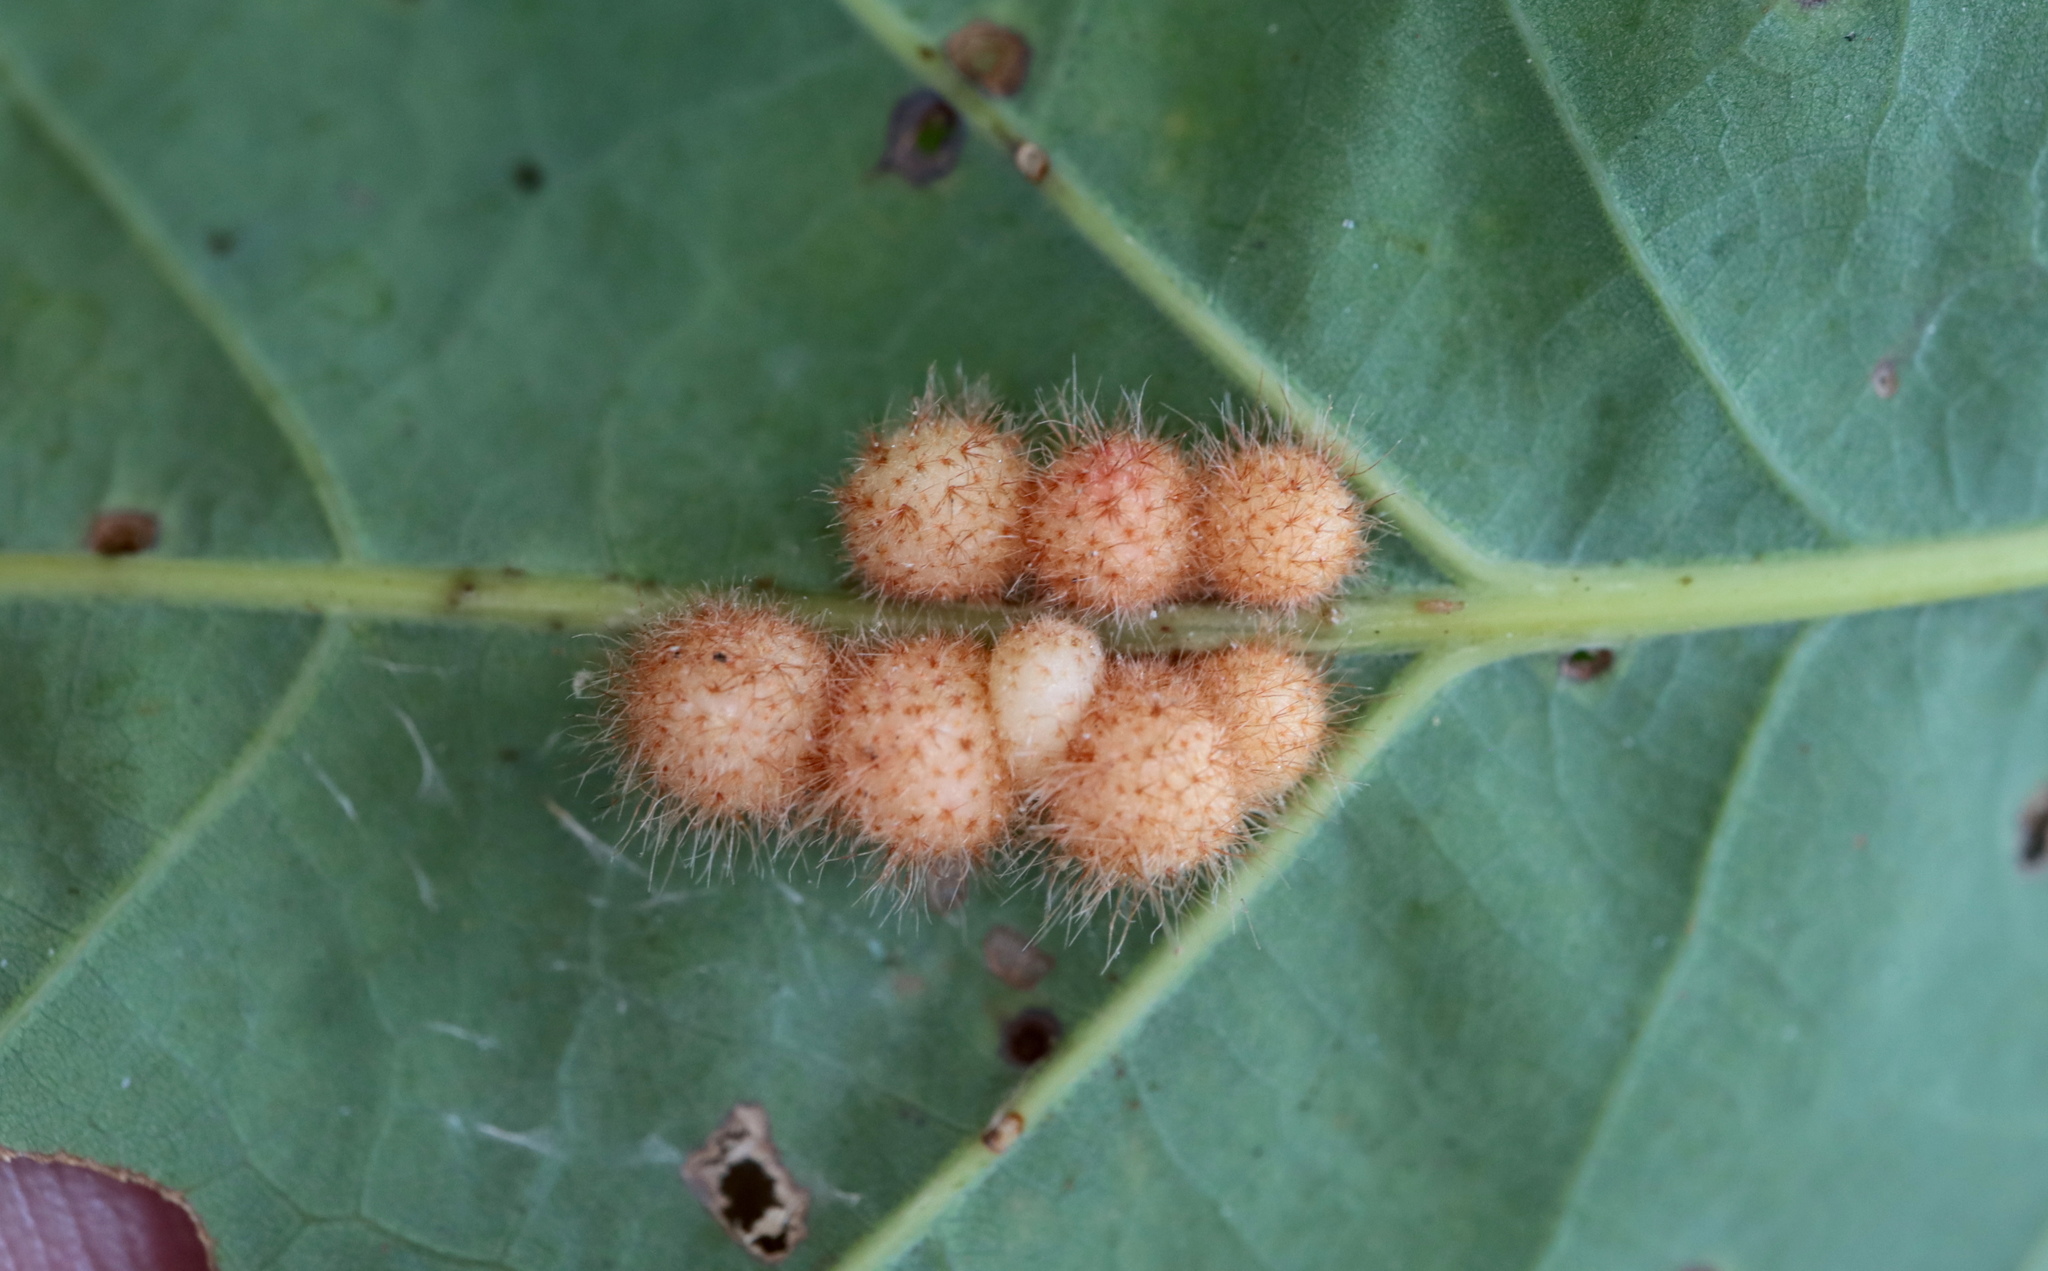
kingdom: Animalia
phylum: Arthropoda
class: Insecta
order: Hymenoptera
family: Cynipidae
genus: Andricus
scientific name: Andricus
